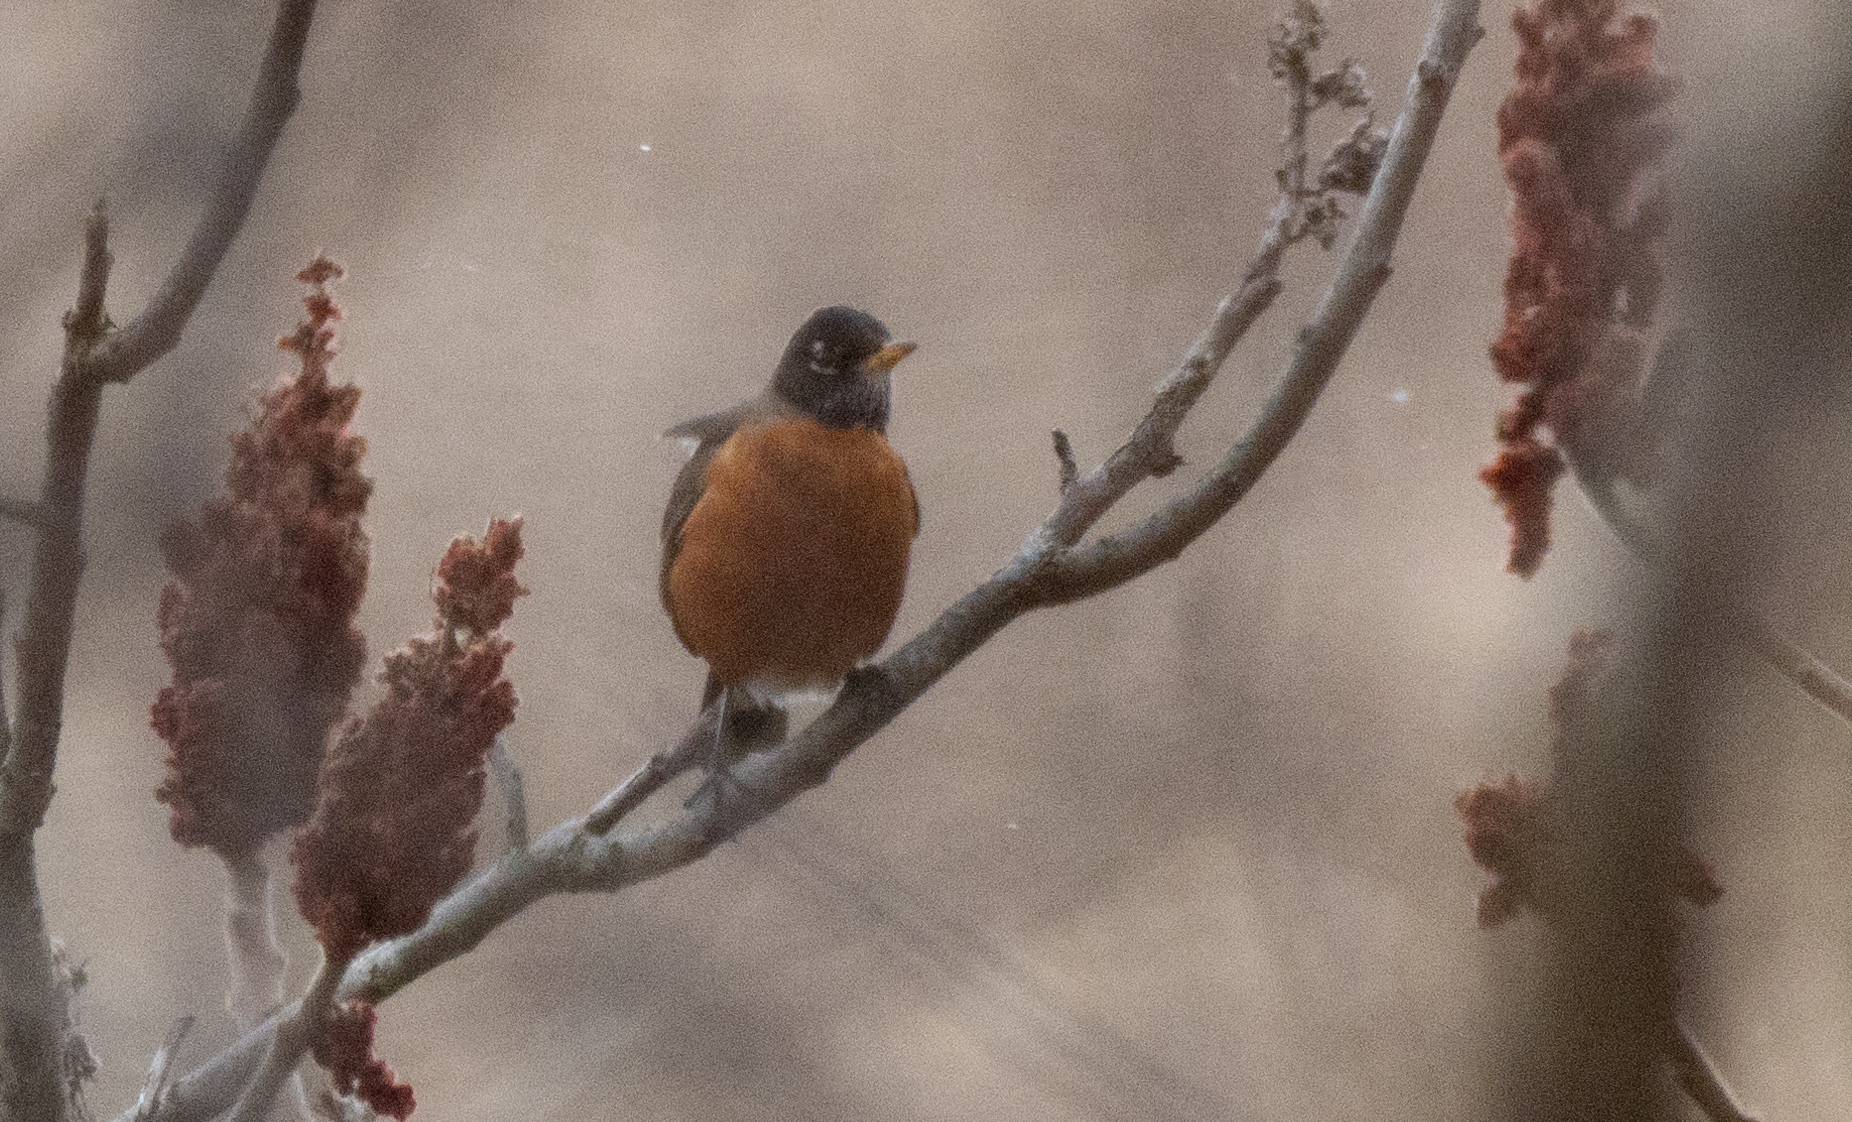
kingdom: Animalia
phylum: Chordata
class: Aves
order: Passeriformes
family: Turdidae
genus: Turdus
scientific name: Turdus migratorius
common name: American robin
